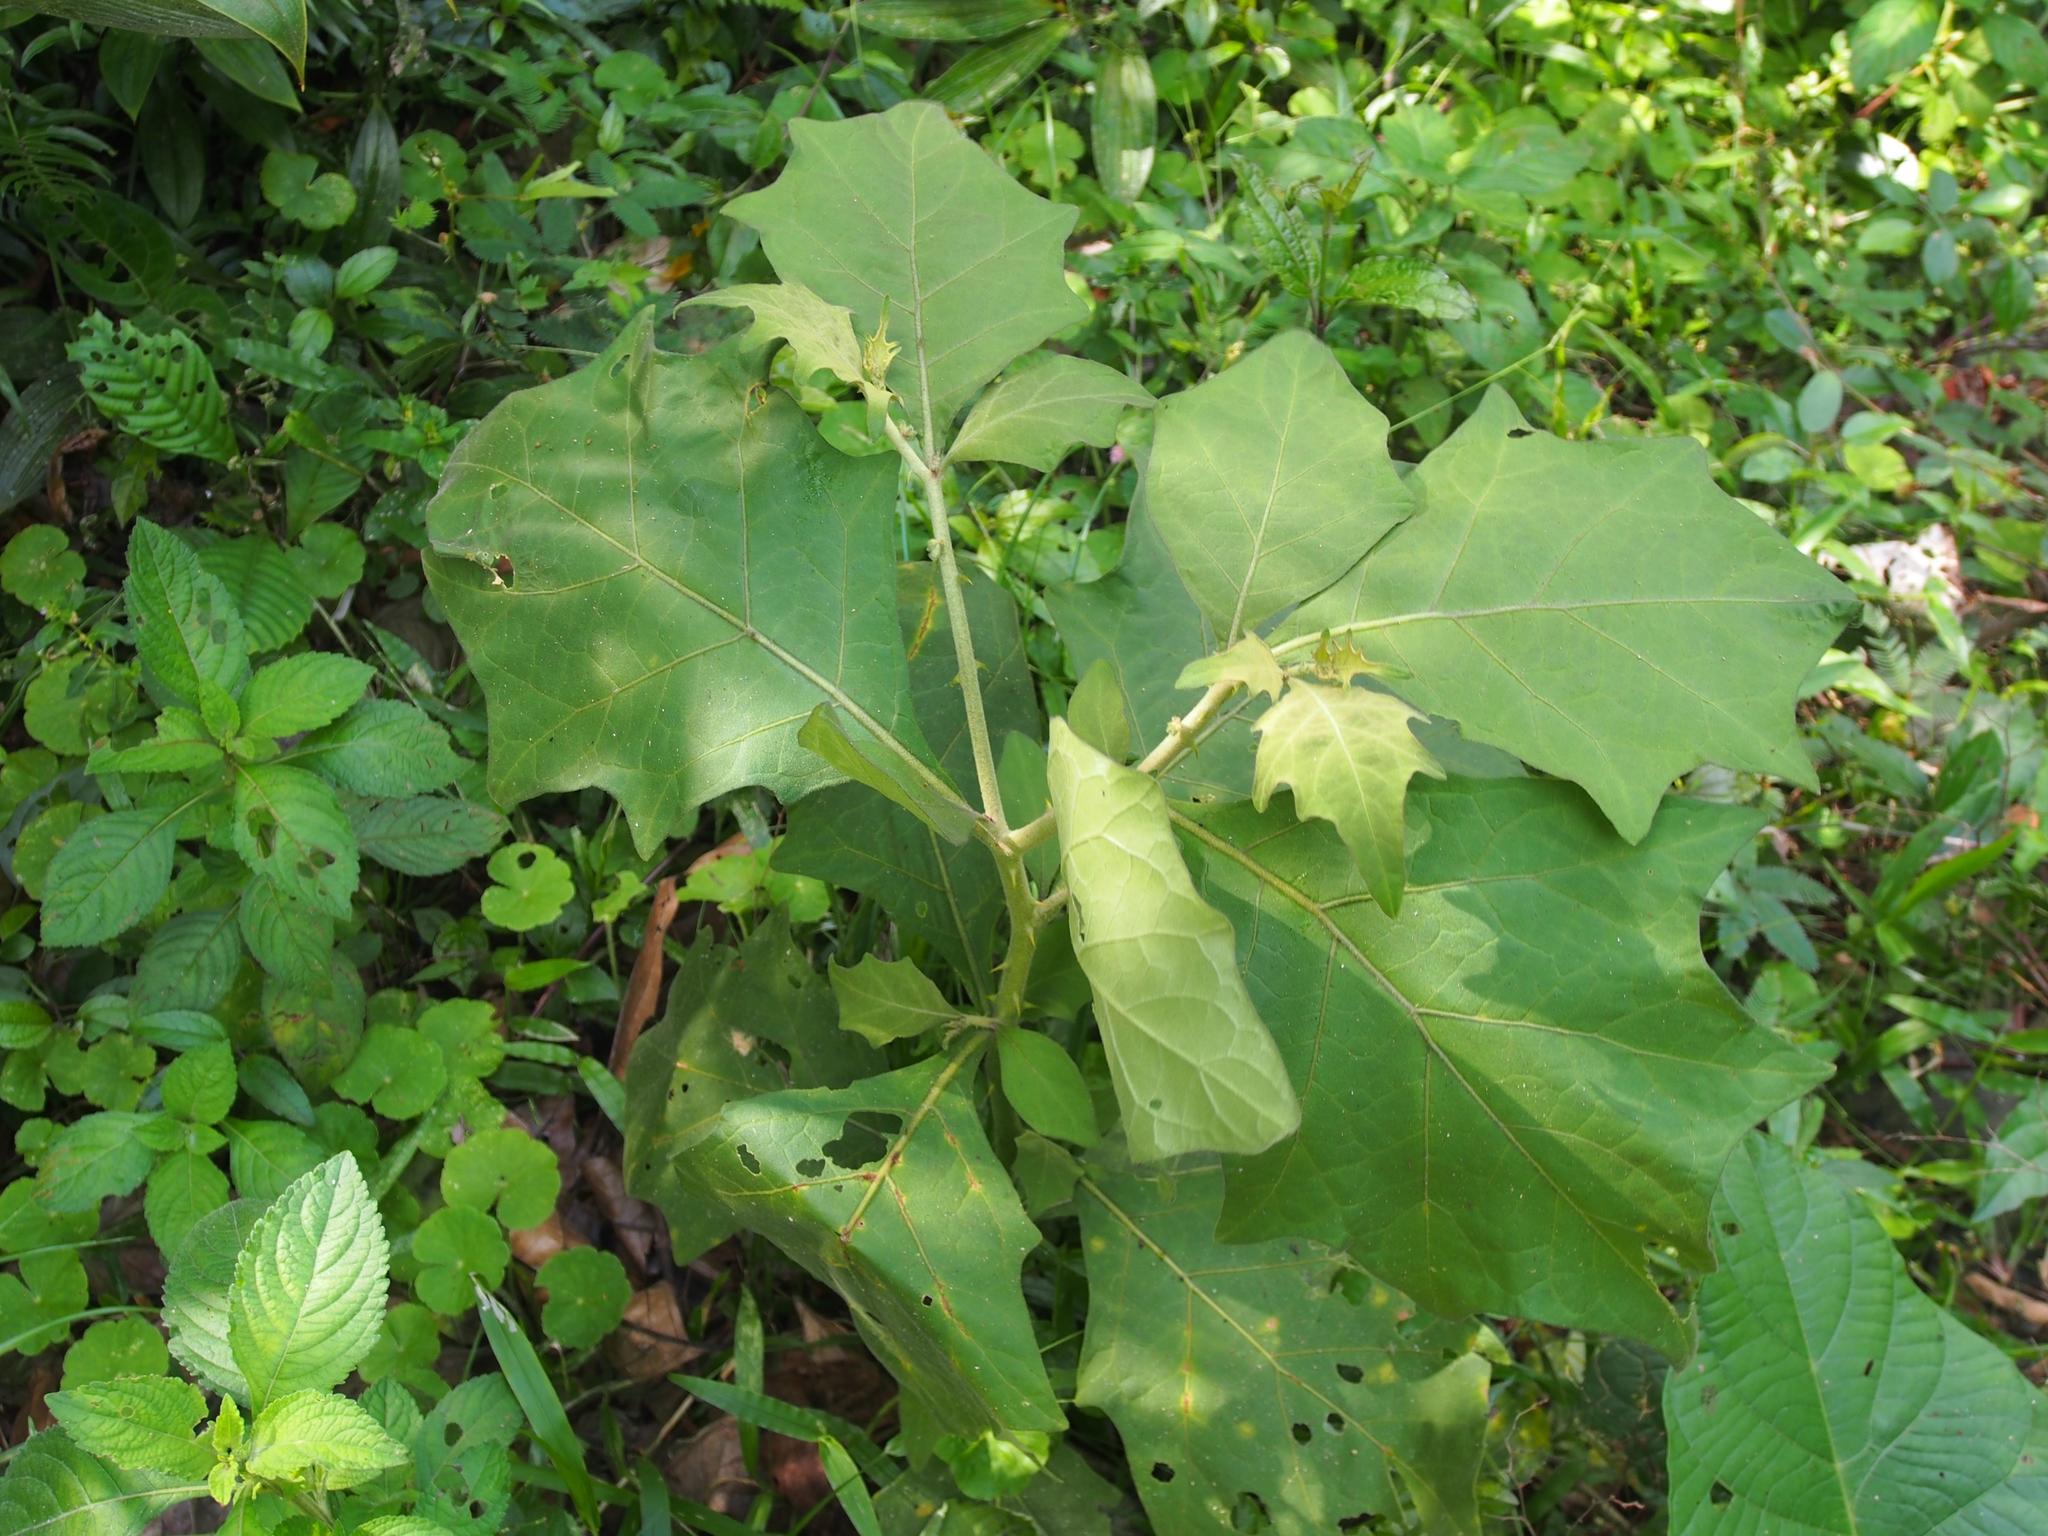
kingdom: Plantae
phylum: Tracheophyta
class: Magnoliopsida
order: Solanales
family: Solanaceae
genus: Solanum
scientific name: Solanum jamaicense
